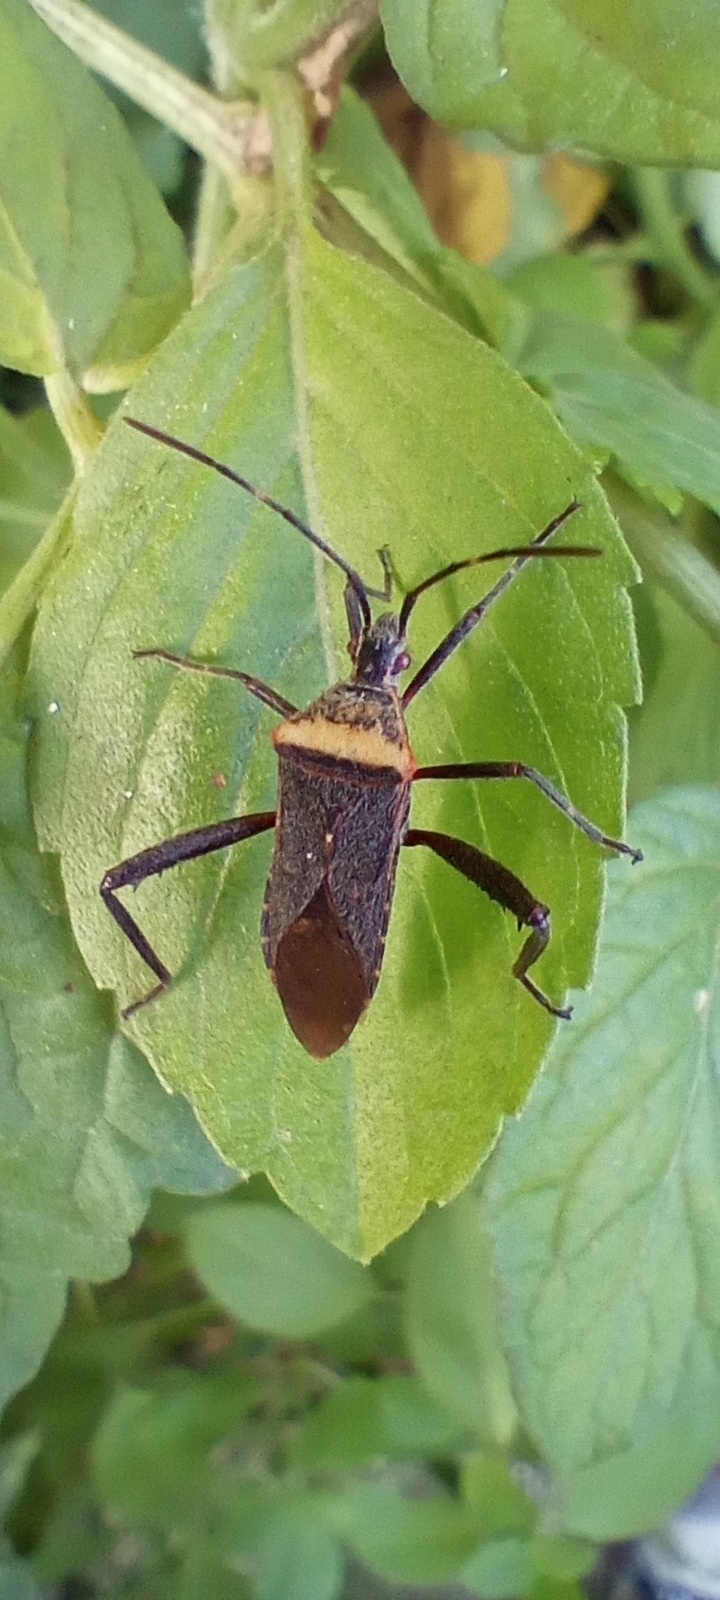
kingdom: Animalia
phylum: Arthropoda
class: Insecta
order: Hemiptera
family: Coreidae
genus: Phthiacnemia
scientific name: Phthiacnemia picta
